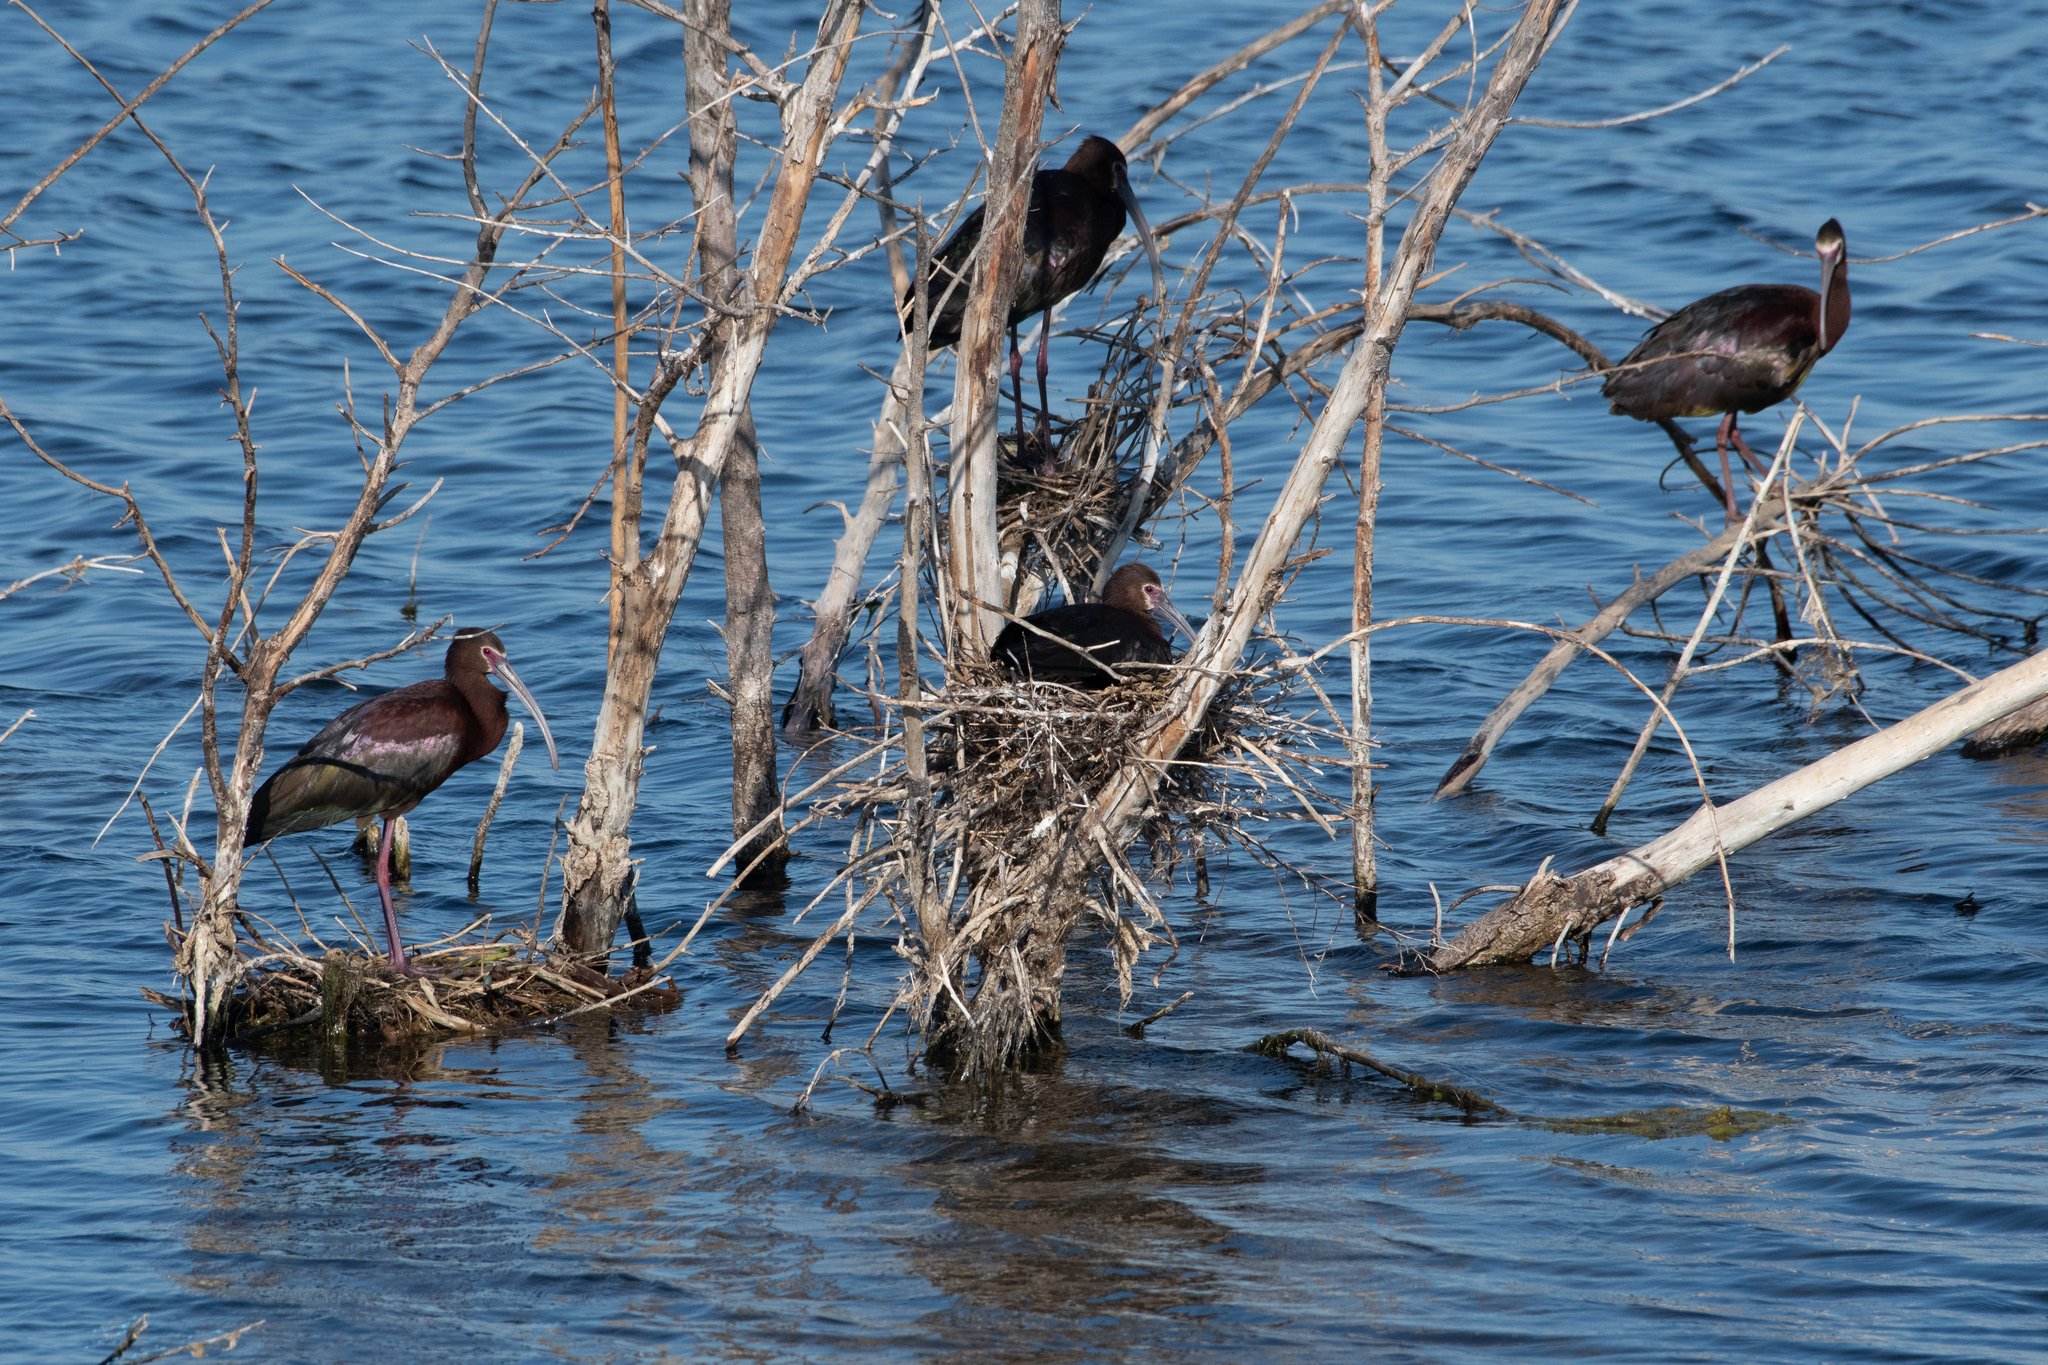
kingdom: Animalia
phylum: Chordata
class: Aves
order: Pelecaniformes
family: Threskiornithidae
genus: Plegadis
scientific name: Plegadis chihi
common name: White-faced ibis
